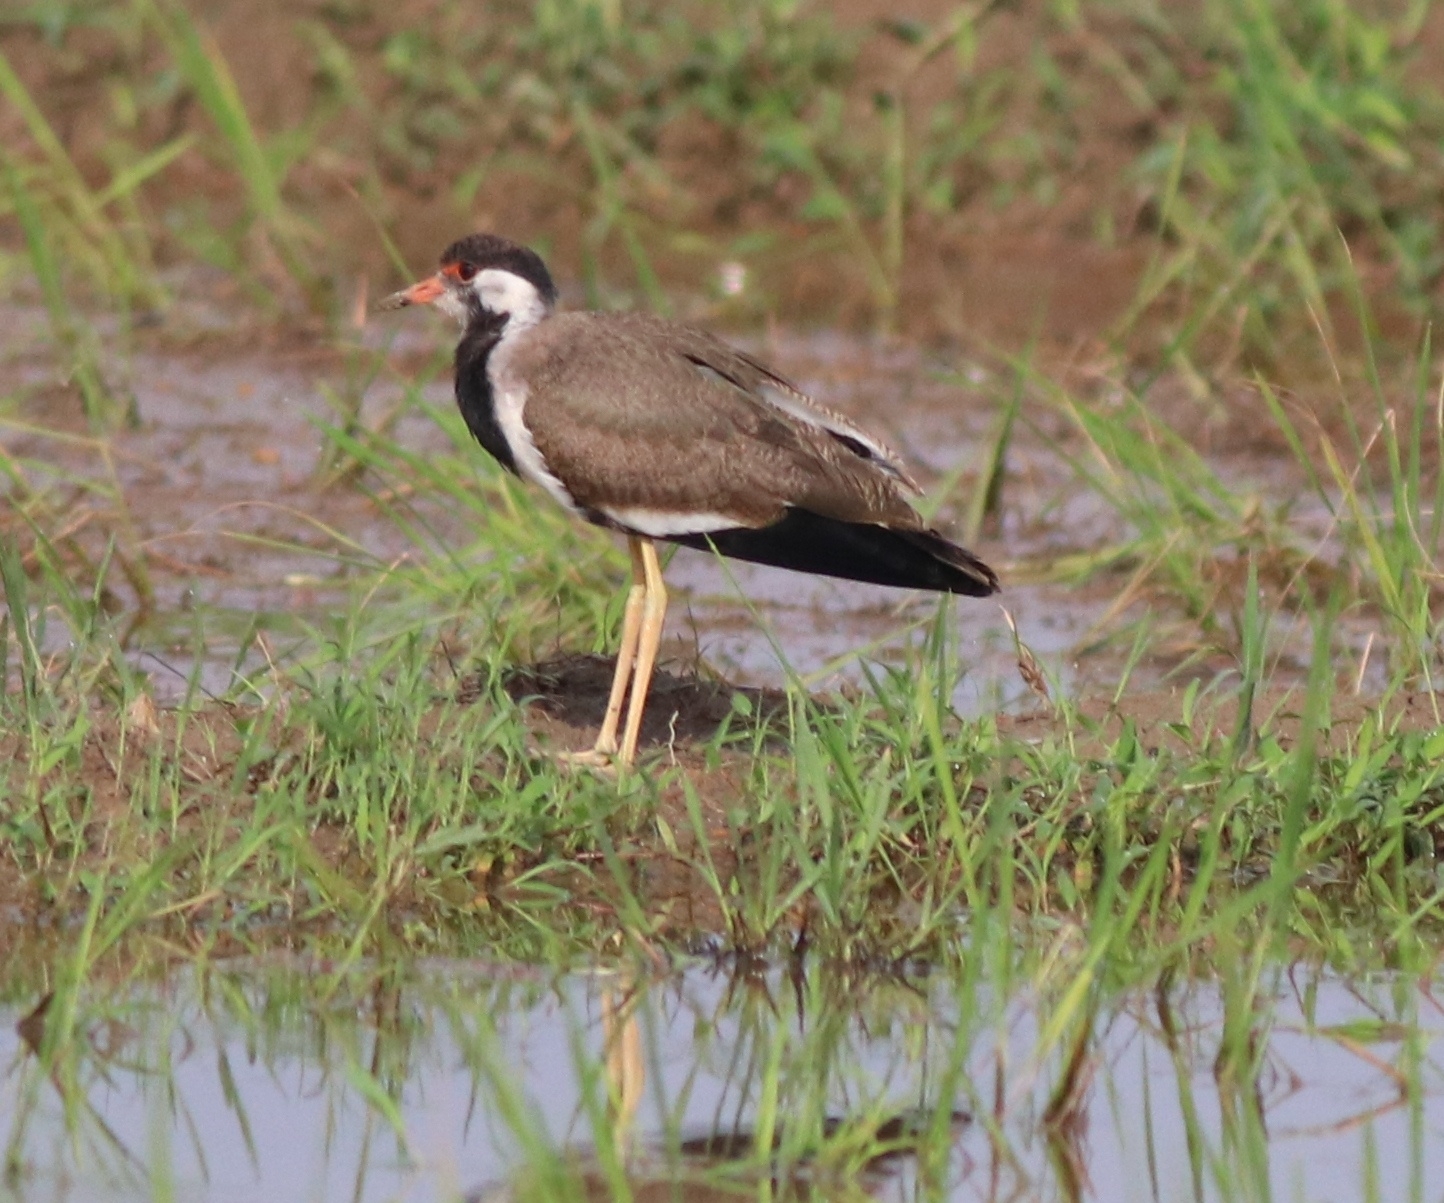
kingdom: Animalia
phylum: Chordata
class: Aves
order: Charadriiformes
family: Charadriidae
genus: Vanellus
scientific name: Vanellus indicus
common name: Red-wattled lapwing
